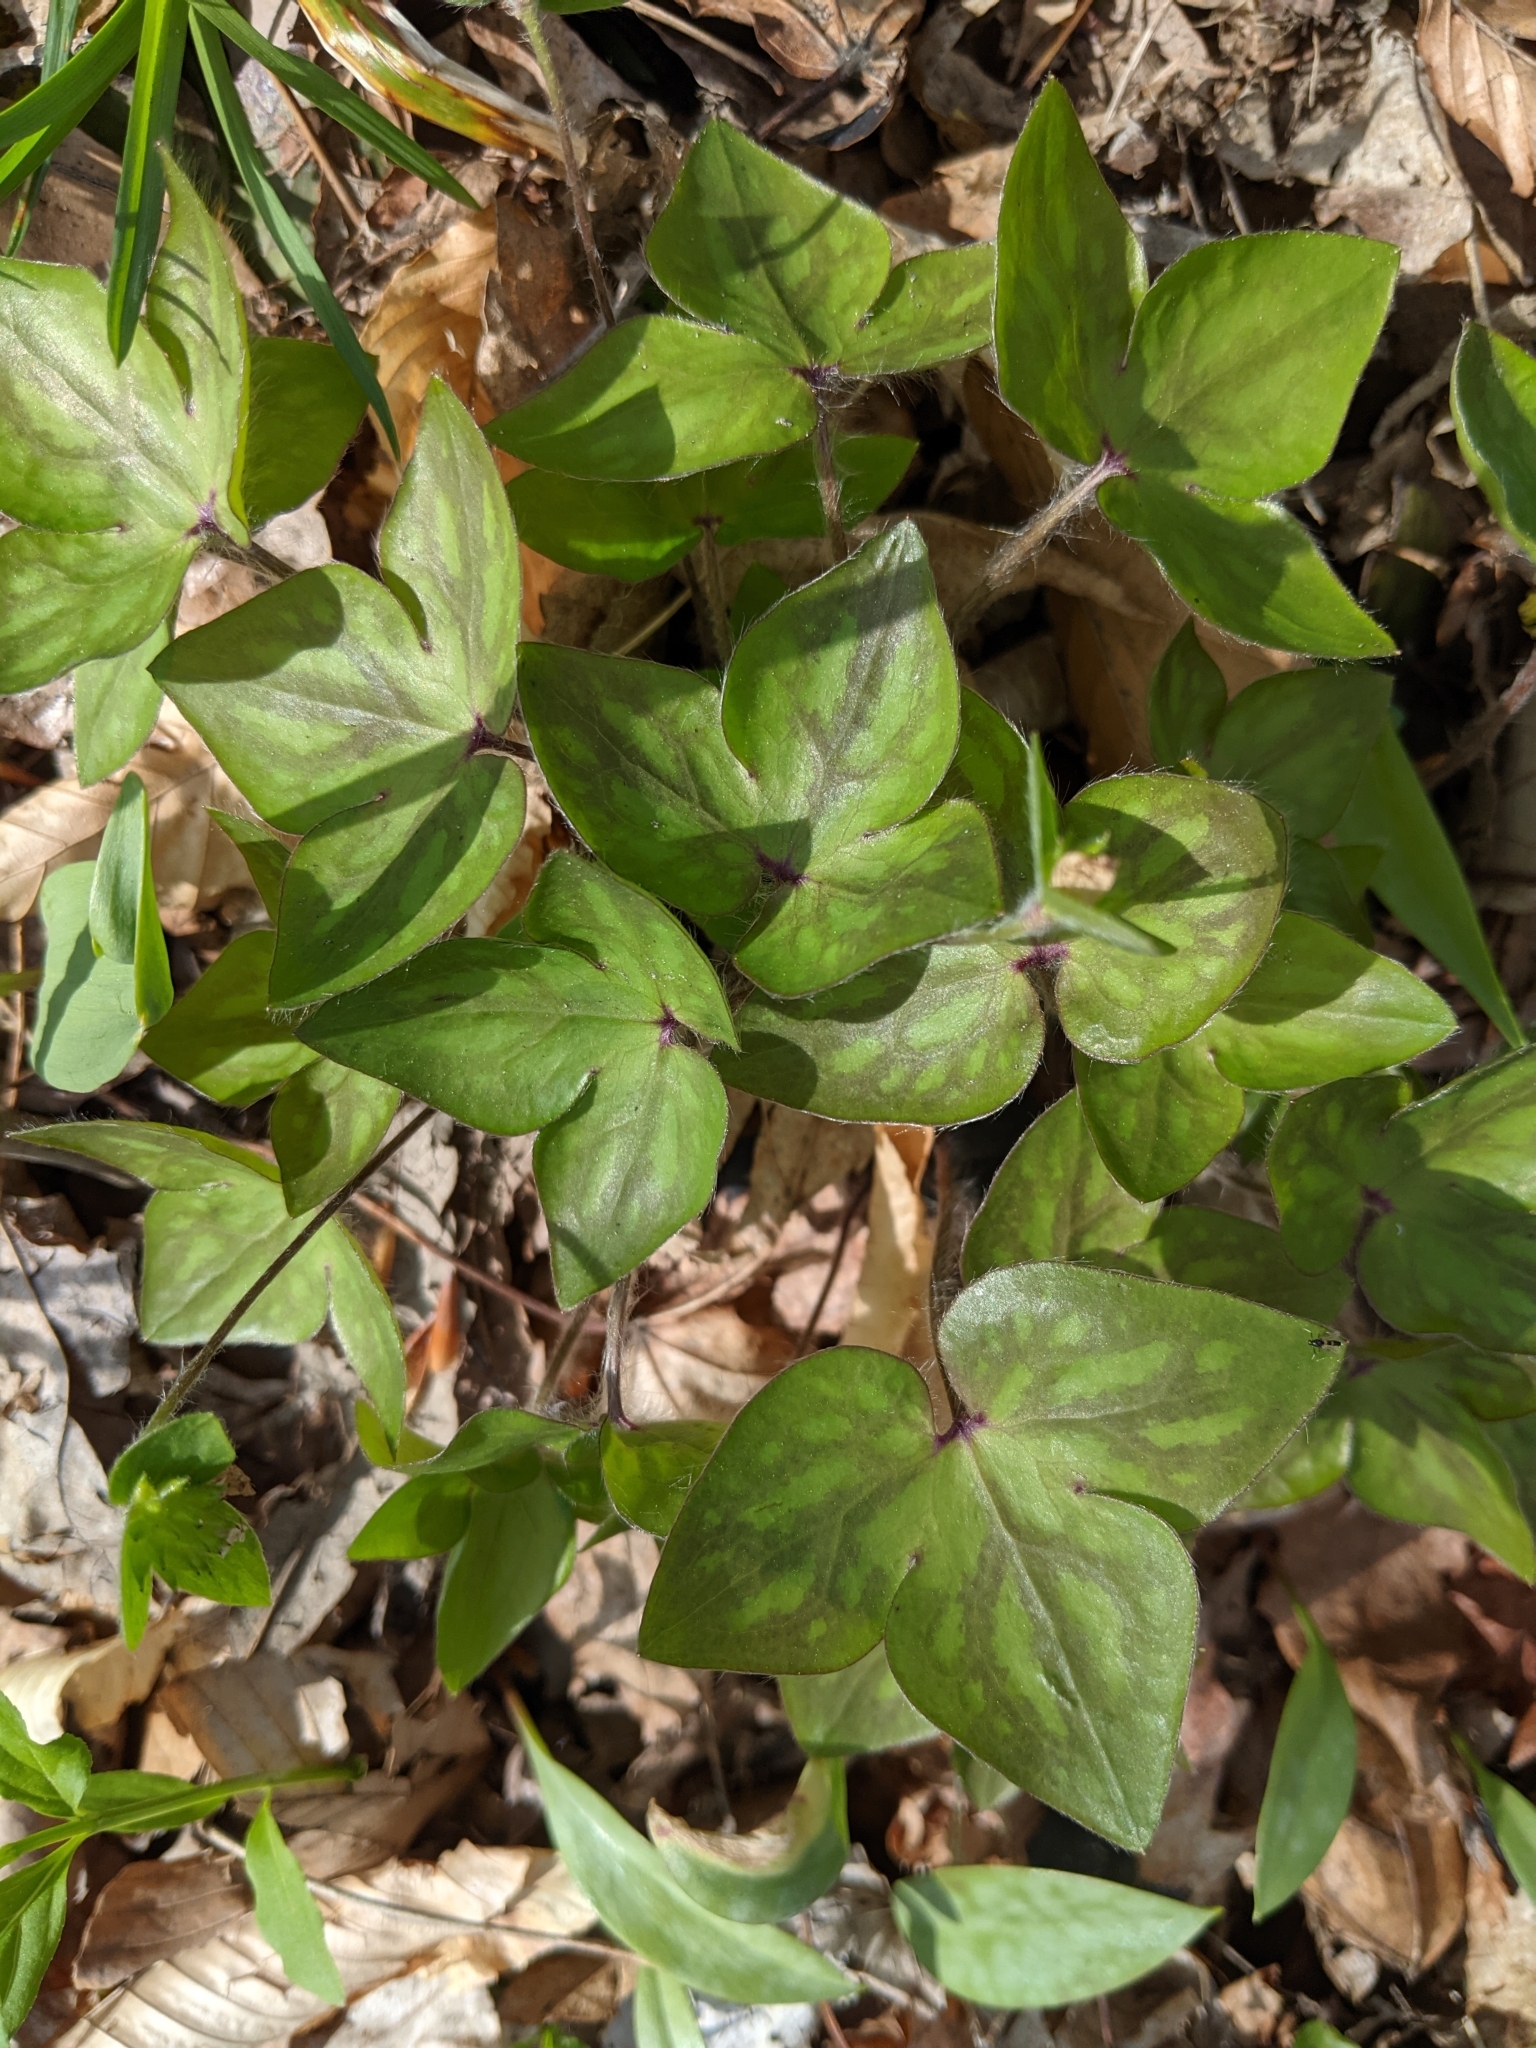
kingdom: Plantae
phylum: Tracheophyta
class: Magnoliopsida
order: Ranunculales
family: Ranunculaceae
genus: Hepatica
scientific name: Hepatica acutiloba
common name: Sharp-lobed hepatica
